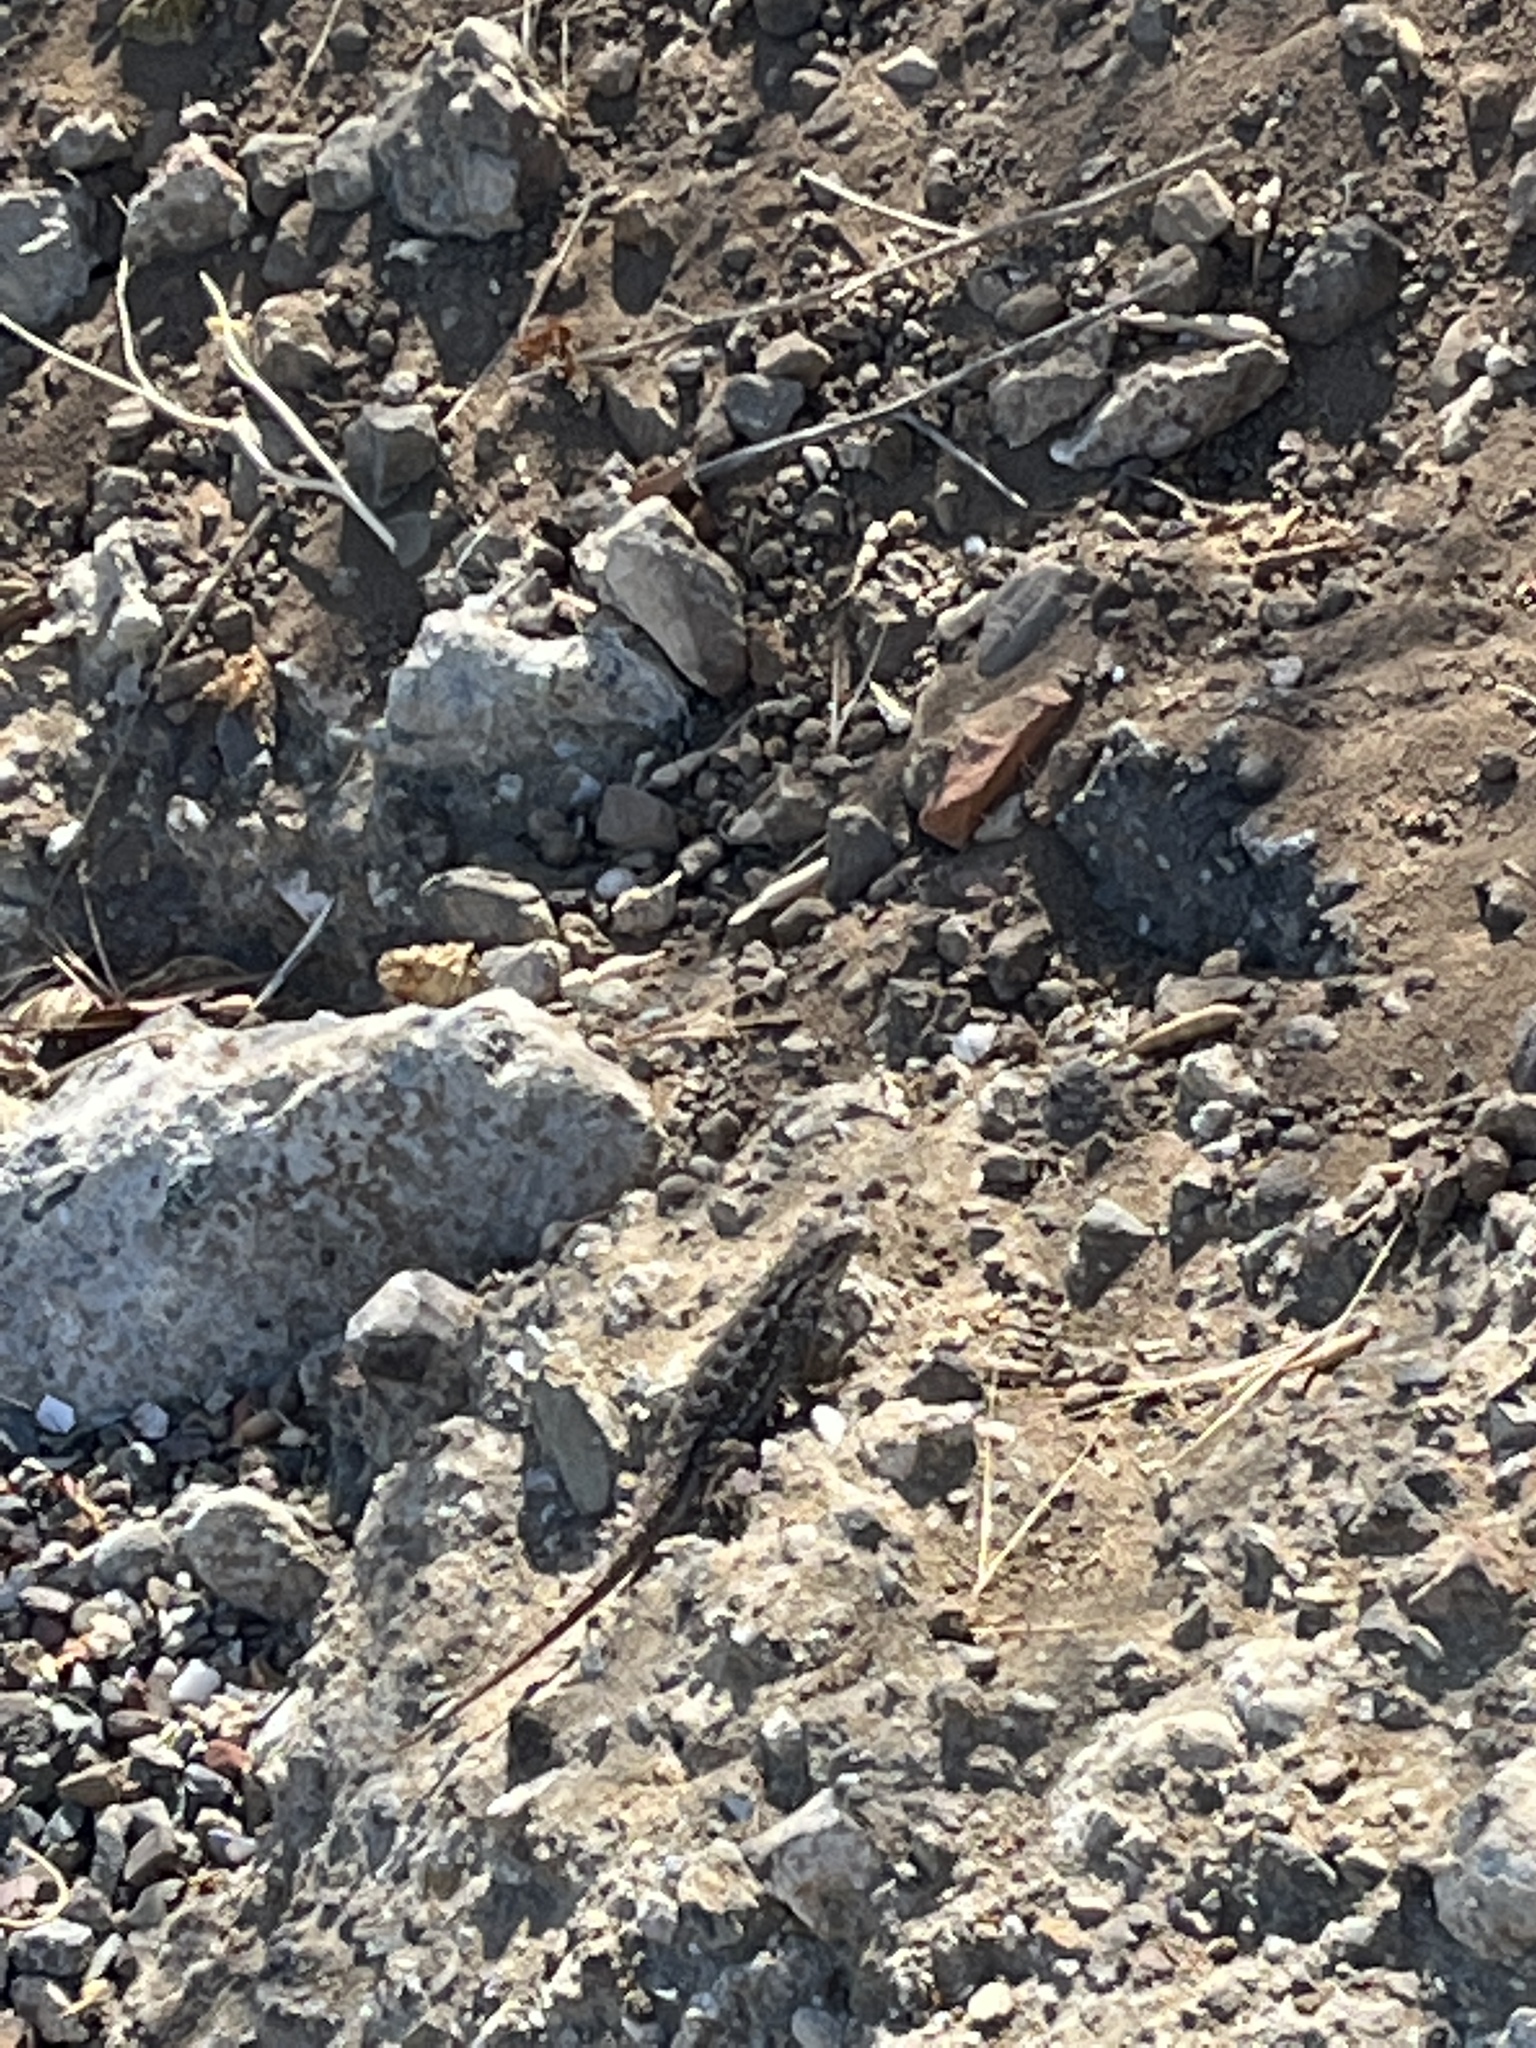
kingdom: Animalia
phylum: Chordata
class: Squamata
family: Phrynosomatidae
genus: Sceloporus
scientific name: Sceloporus occidentalis
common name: Western fence lizard
